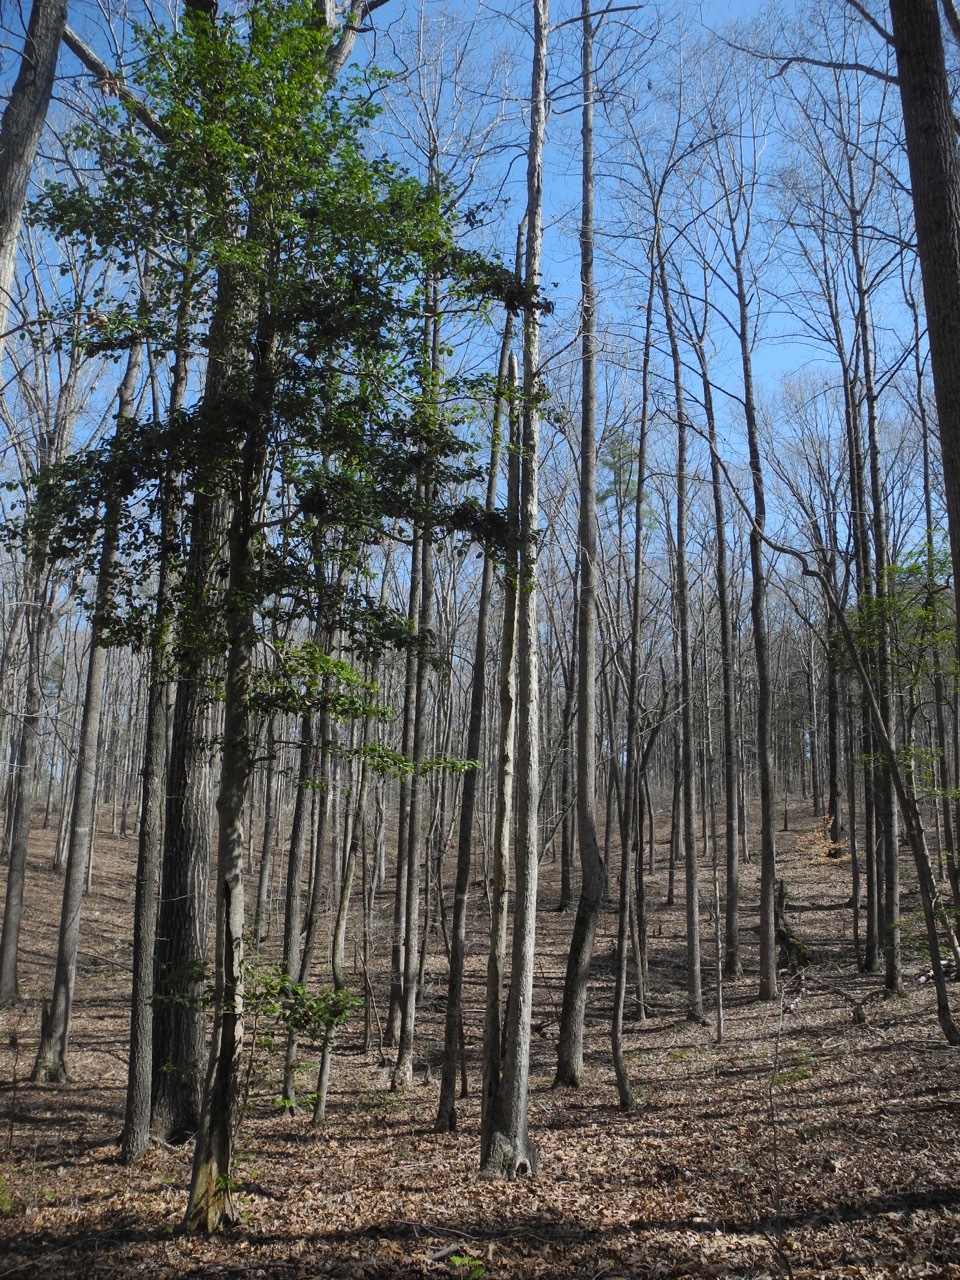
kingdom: Plantae
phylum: Tracheophyta
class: Magnoliopsida
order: Aquifoliales
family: Aquifoliaceae
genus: Ilex
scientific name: Ilex opaca
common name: American holly
